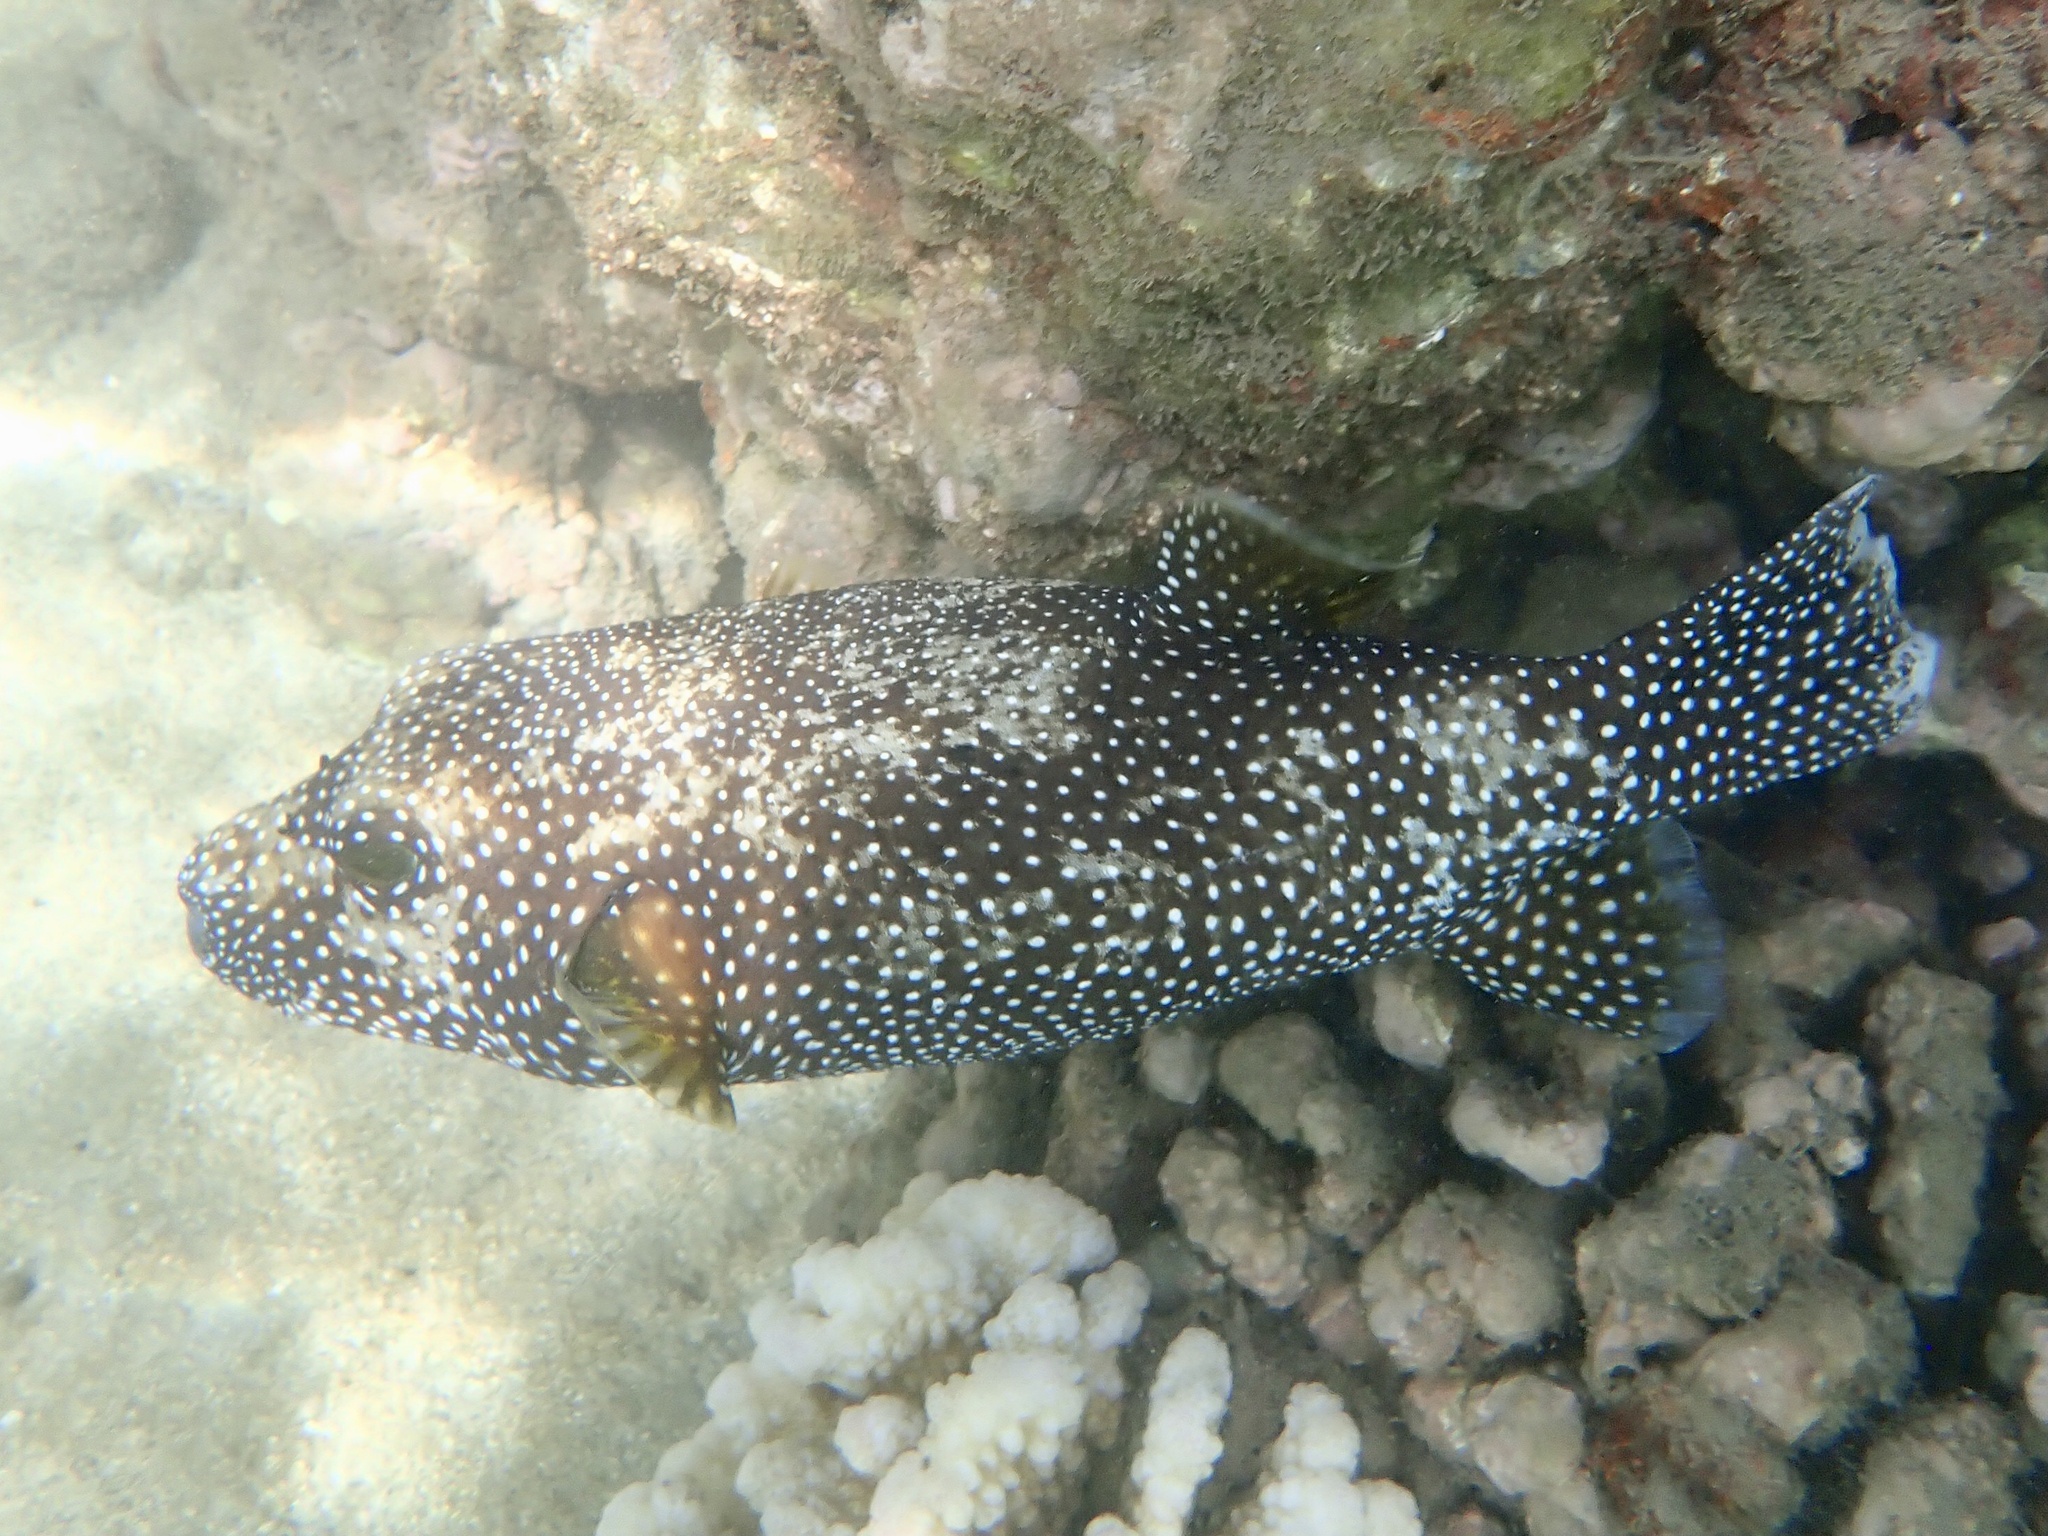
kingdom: Animalia
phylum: Chordata
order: Tetraodontiformes
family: Tetraodontidae
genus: Arothron
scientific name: Arothron meleagris
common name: Guinea-fowl pufferfish
